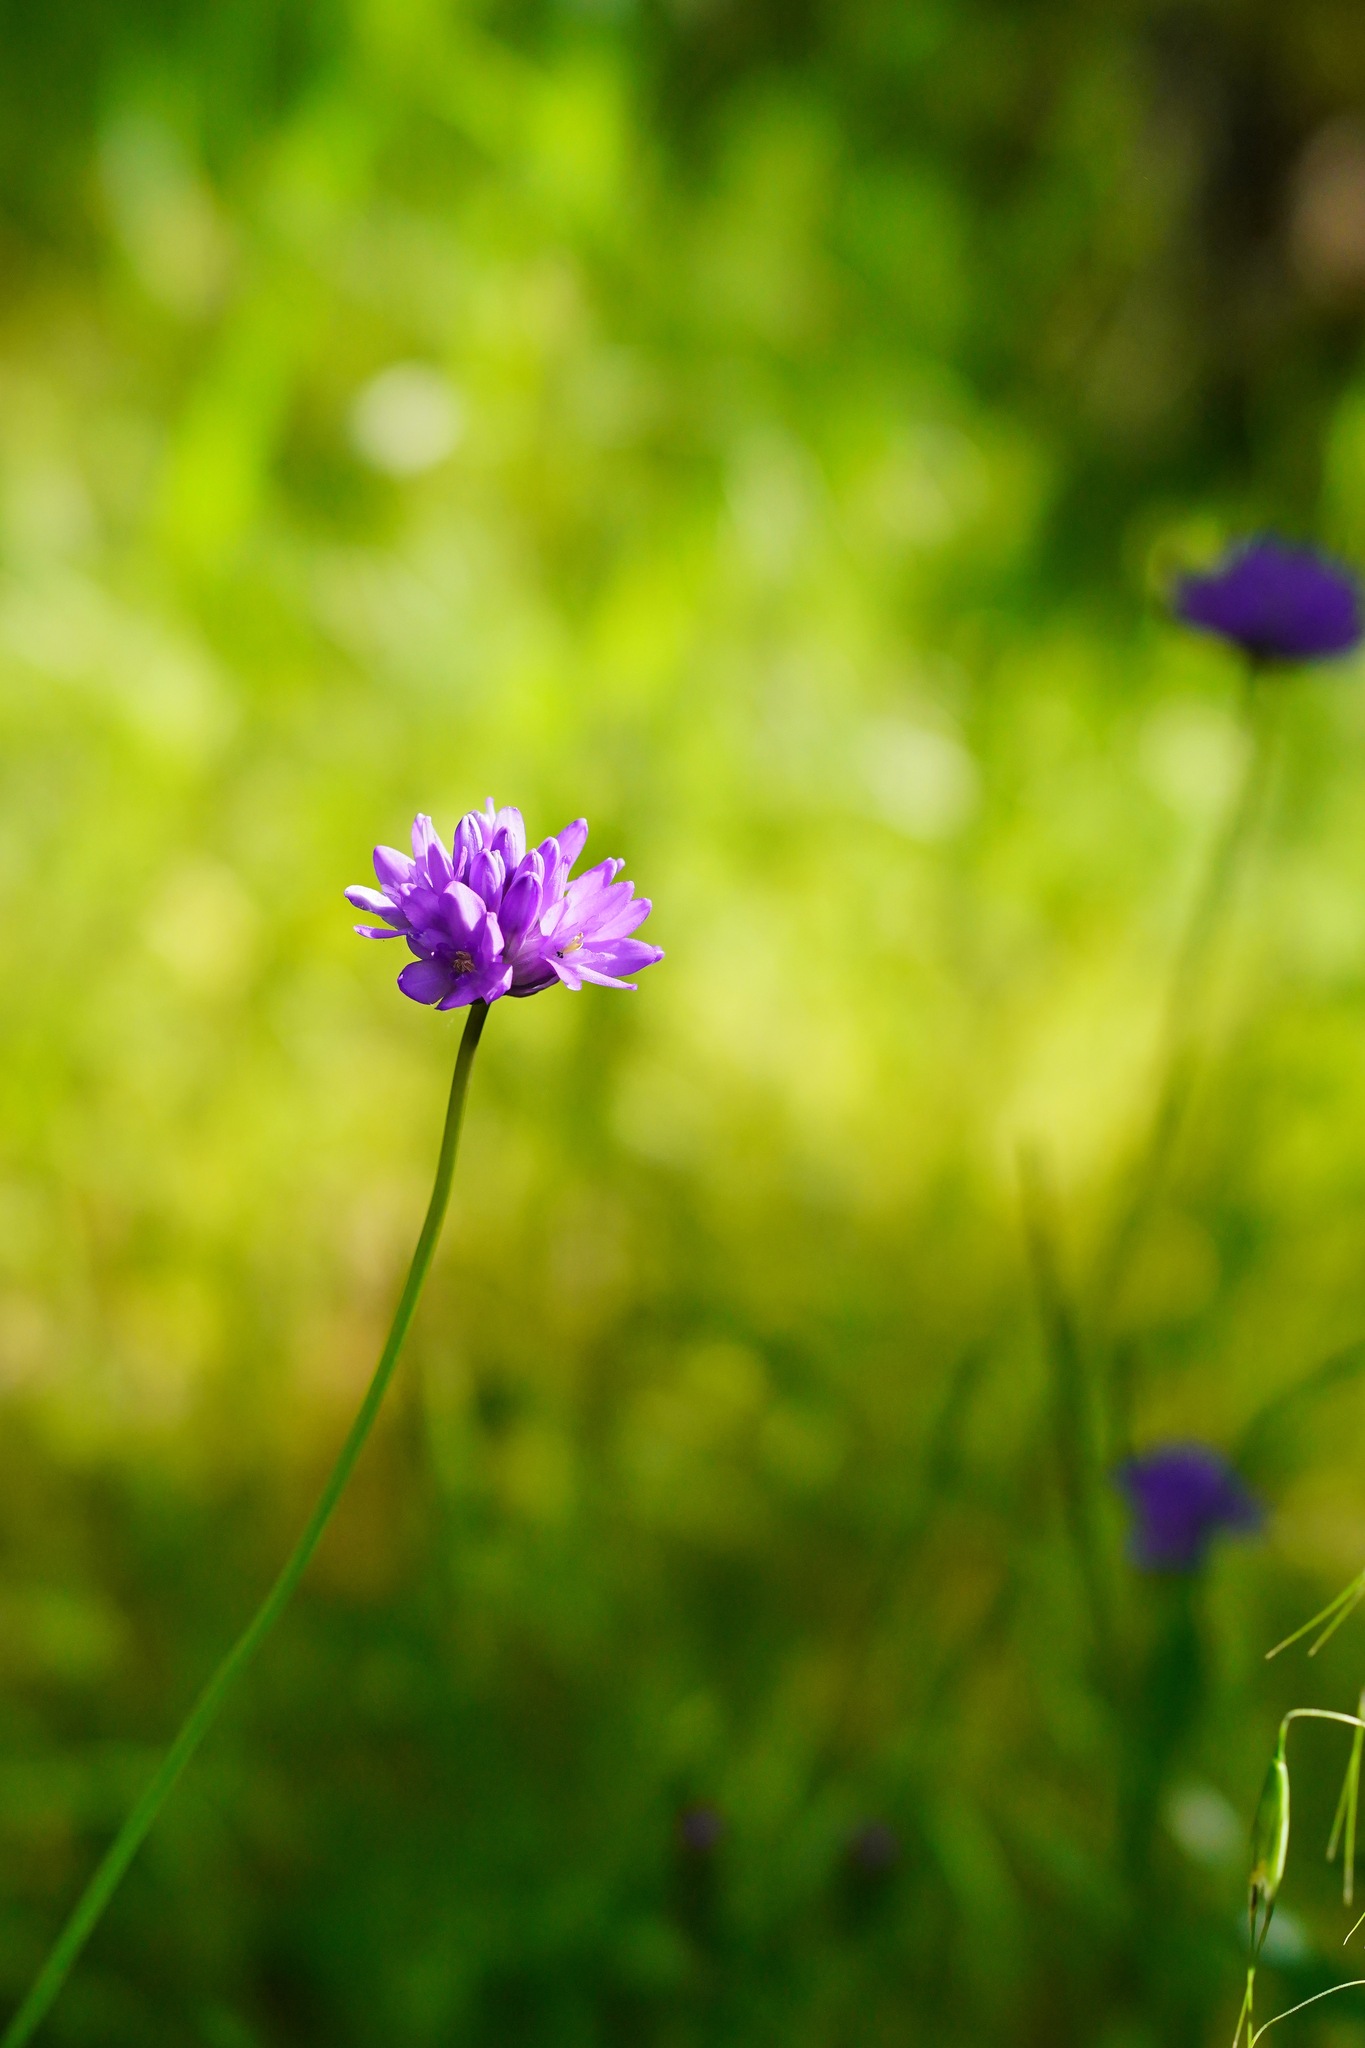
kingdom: Plantae
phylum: Tracheophyta
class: Liliopsida
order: Asparagales
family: Asparagaceae
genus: Dichelostemma
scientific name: Dichelostemma congestum
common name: Fork-tooth ookow
